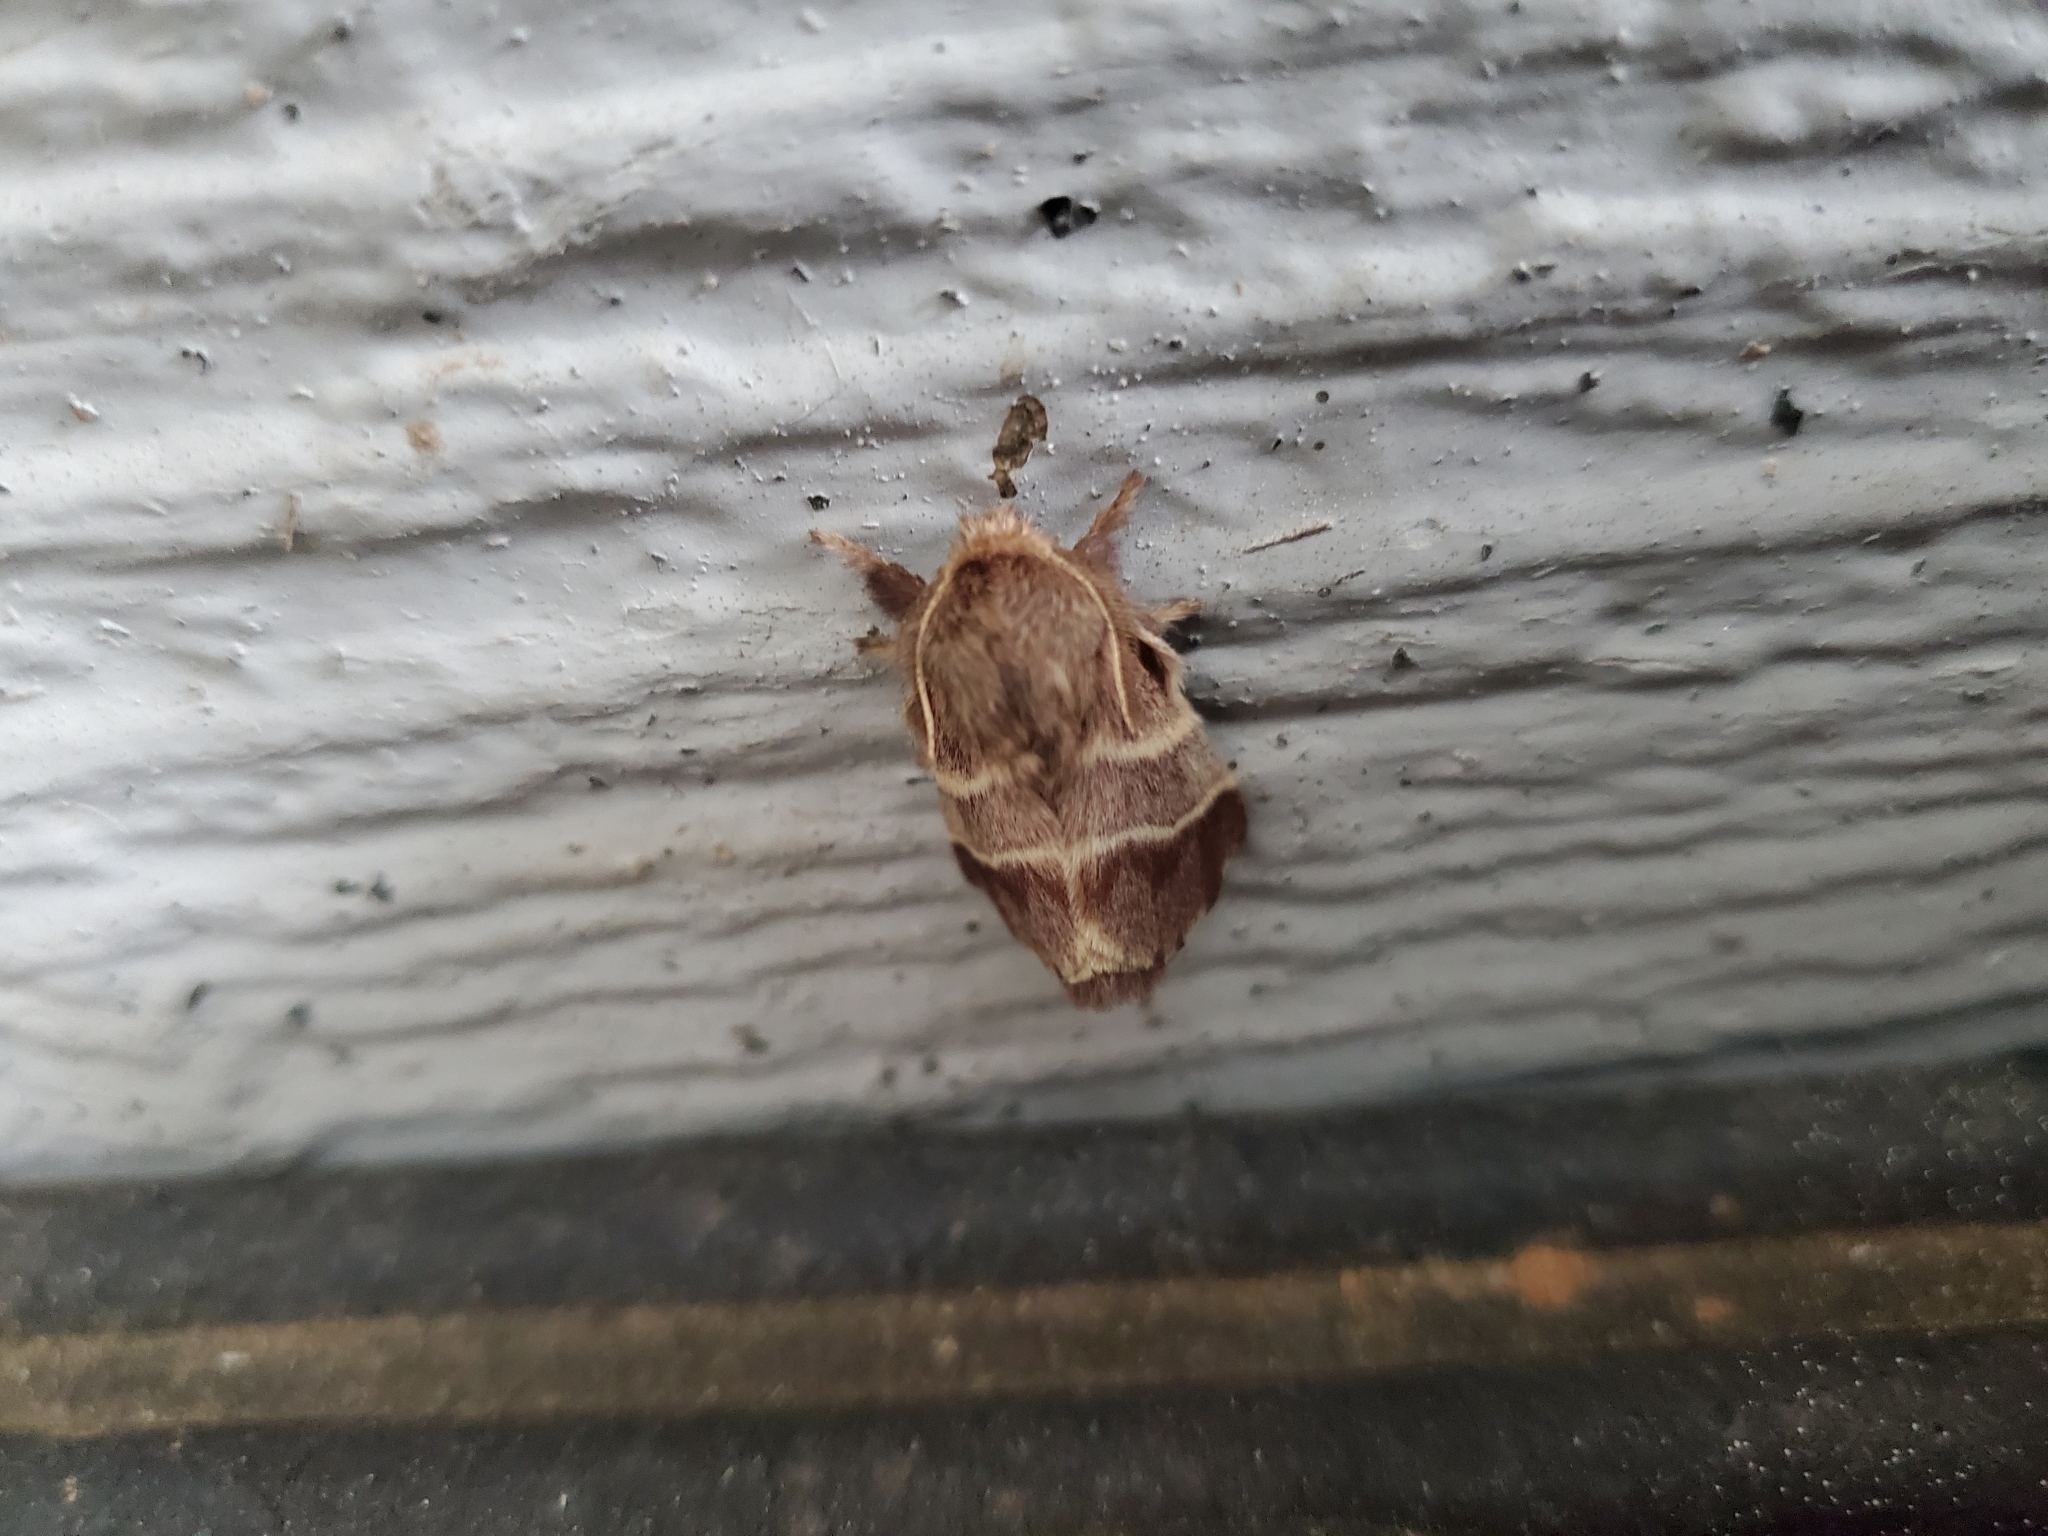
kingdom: Animalia
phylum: Arthropoda
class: Insecta
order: Lepidoptera
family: Lasiocampidae
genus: Malacosoma
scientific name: Malacosoma americana
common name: Eastern tent caterpillar moth
